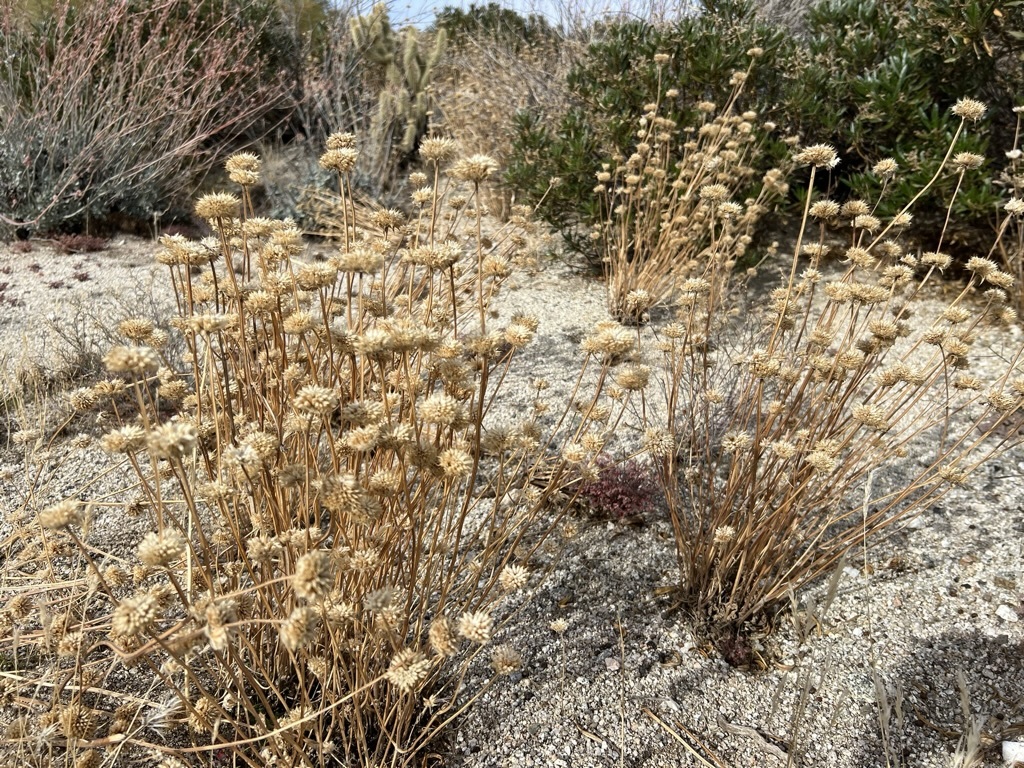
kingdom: Plantae
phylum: Tracheophyta
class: Magnoliopsida
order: Lamiales
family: Lamiaceae
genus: Salvia
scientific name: Salvia columbariae
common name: Chia
